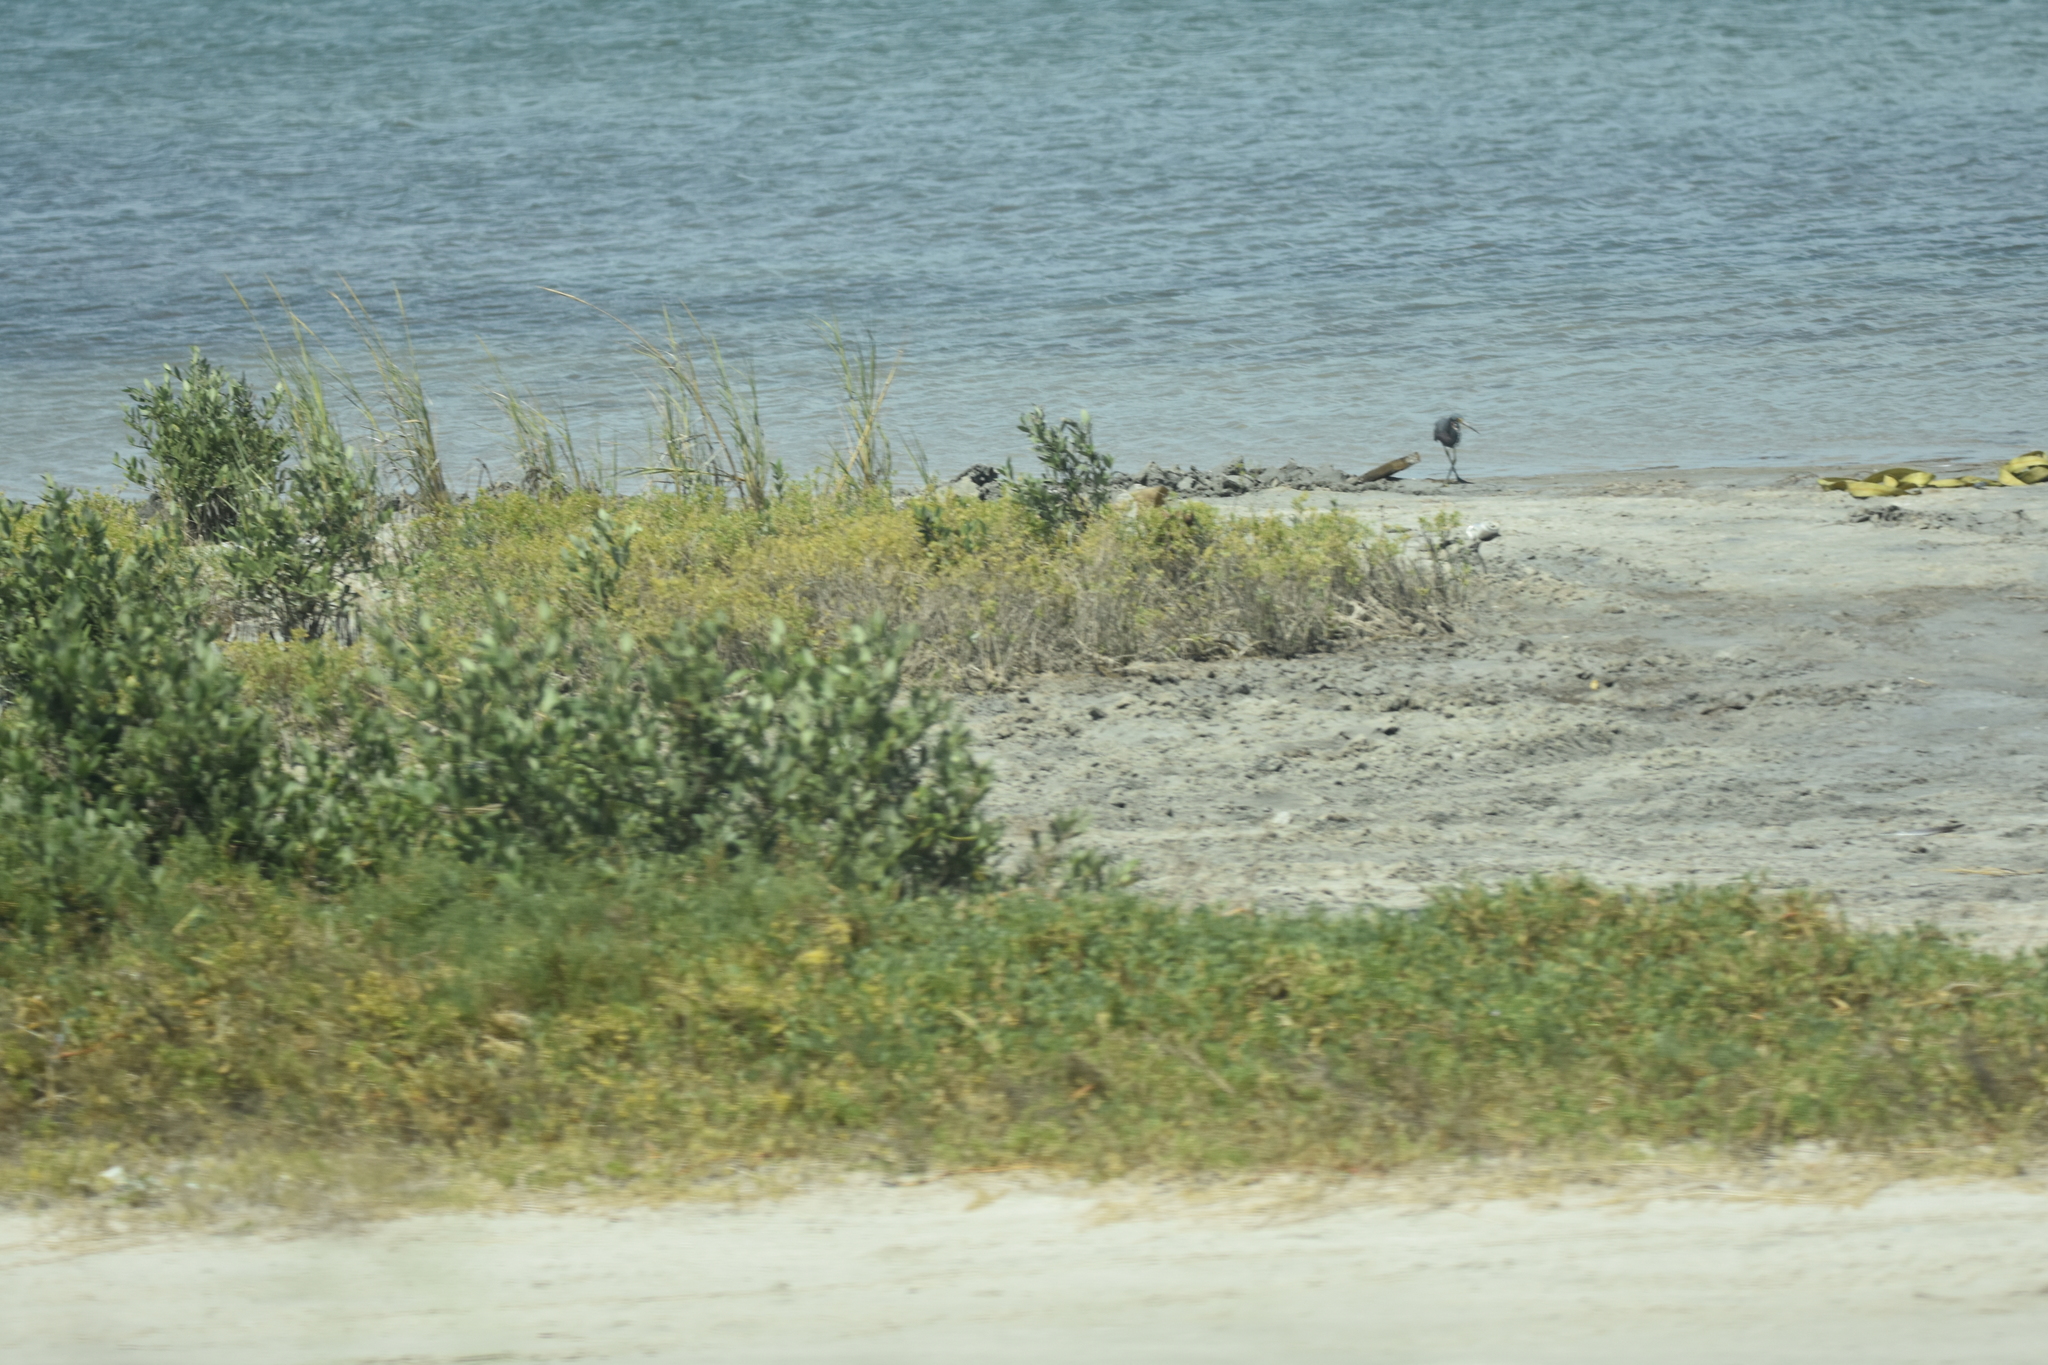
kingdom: Animalia
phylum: Chordata
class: Aves
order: Pelecaniformes
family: Ardeidae
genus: Egretta
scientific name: Egretta tricolor
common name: Tricolored heron
